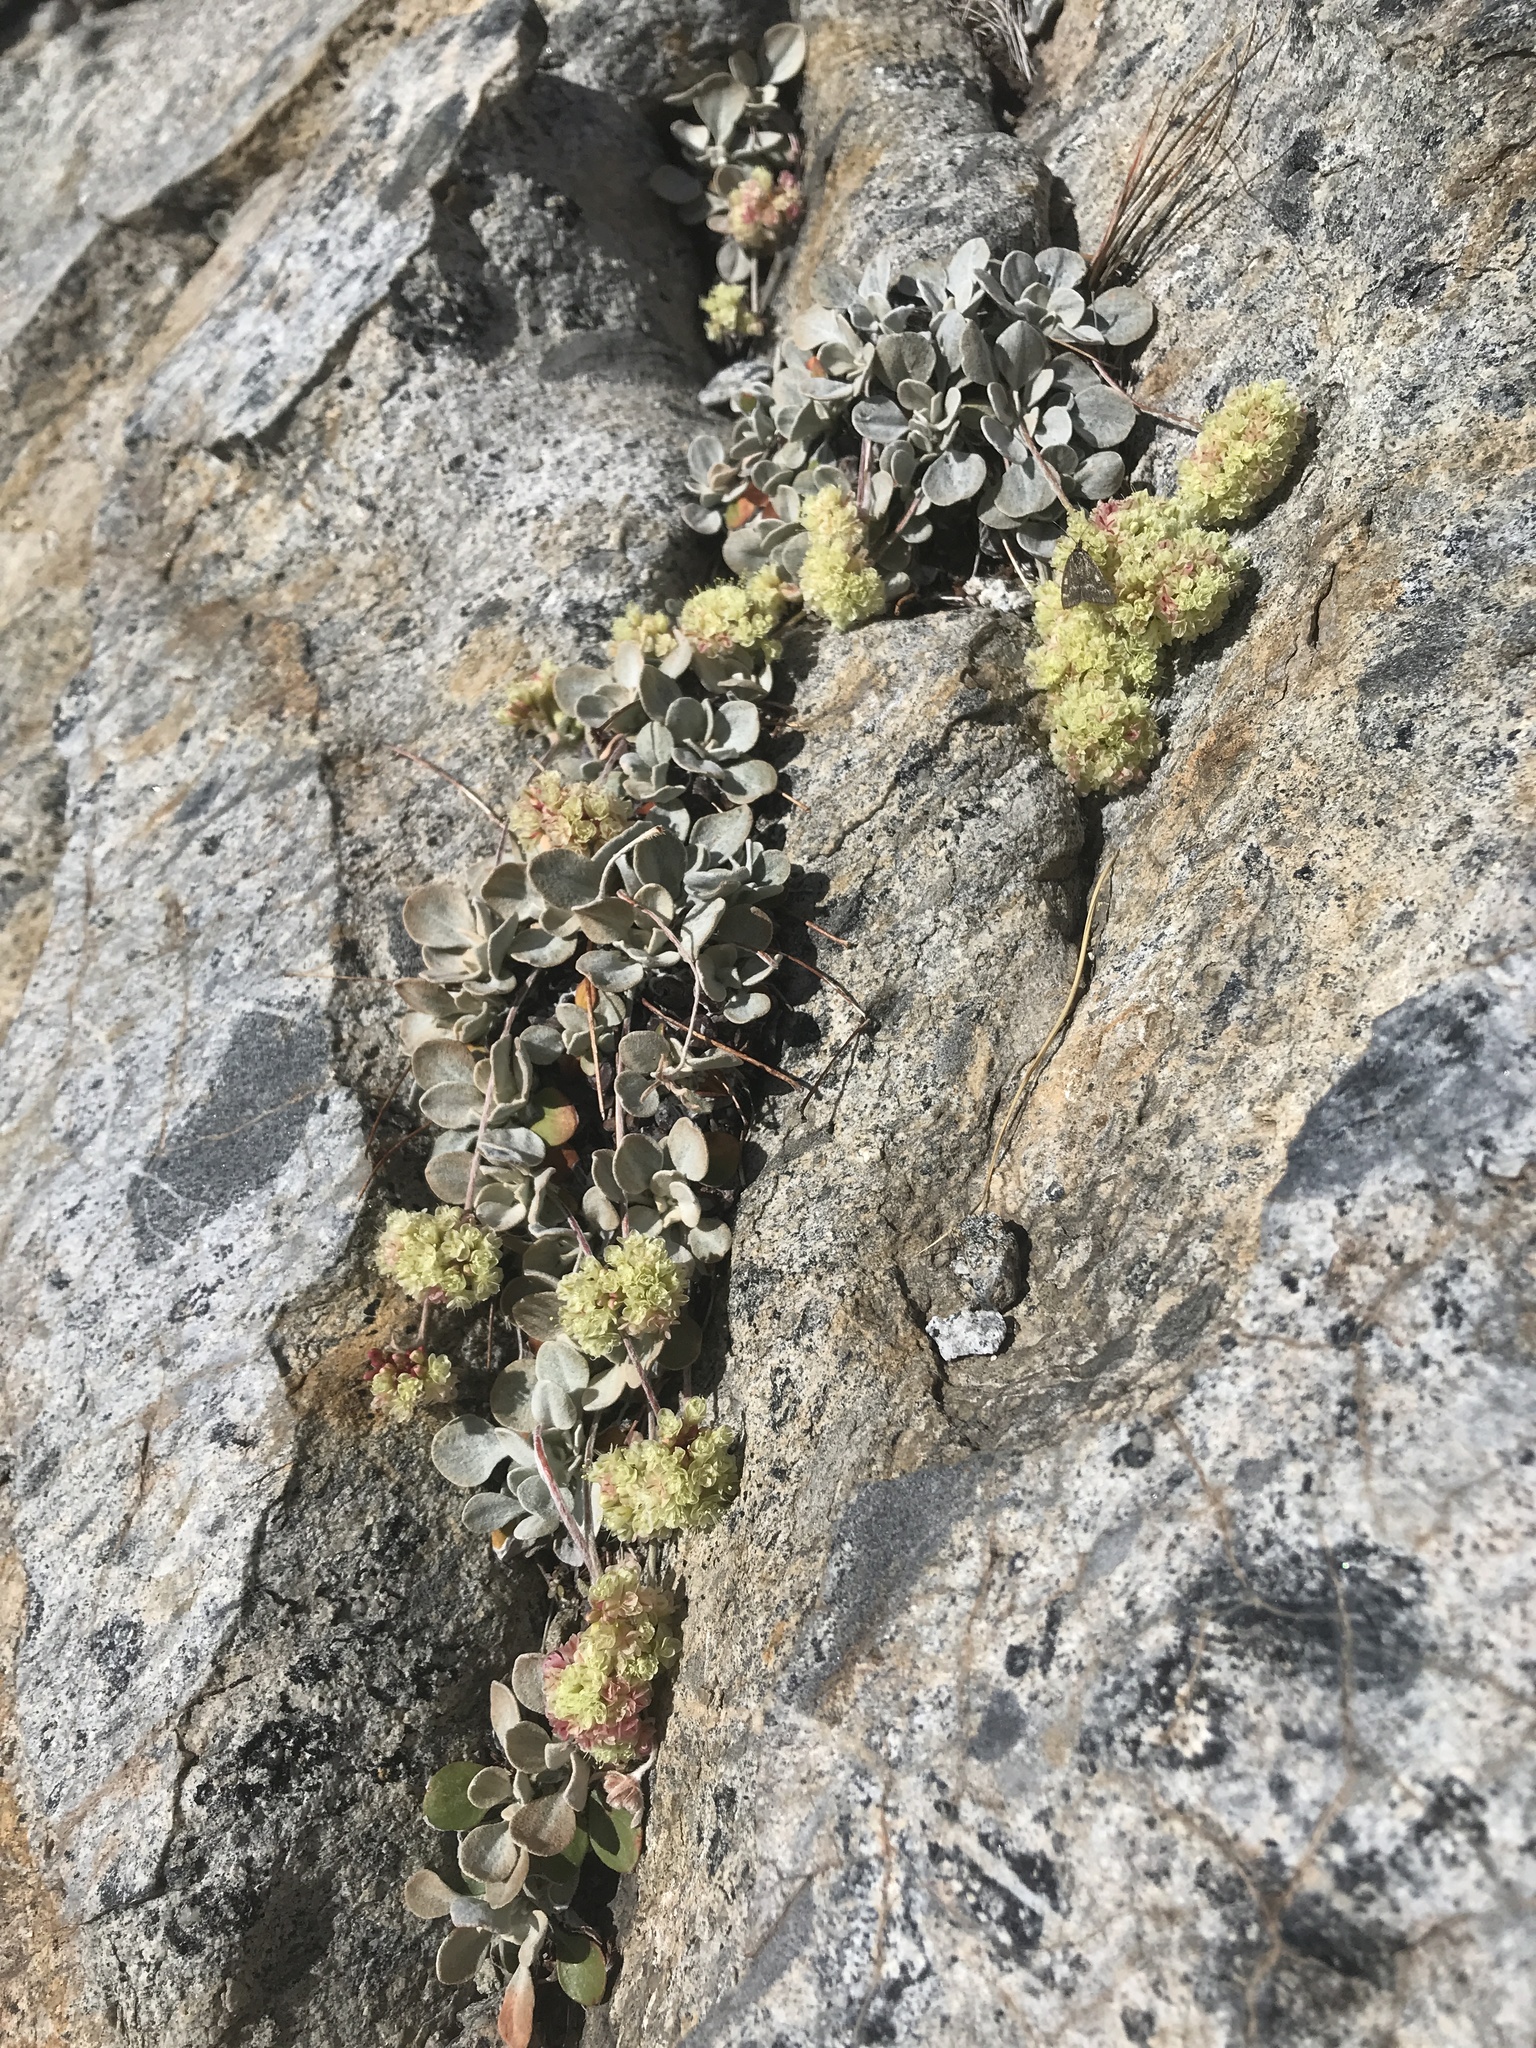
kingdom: Plantae
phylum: Tracheophyta
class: Magnoliopsida
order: Caryophyllales
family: Polygonaceae
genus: Eriogonum
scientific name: Eriogonum lobbii
